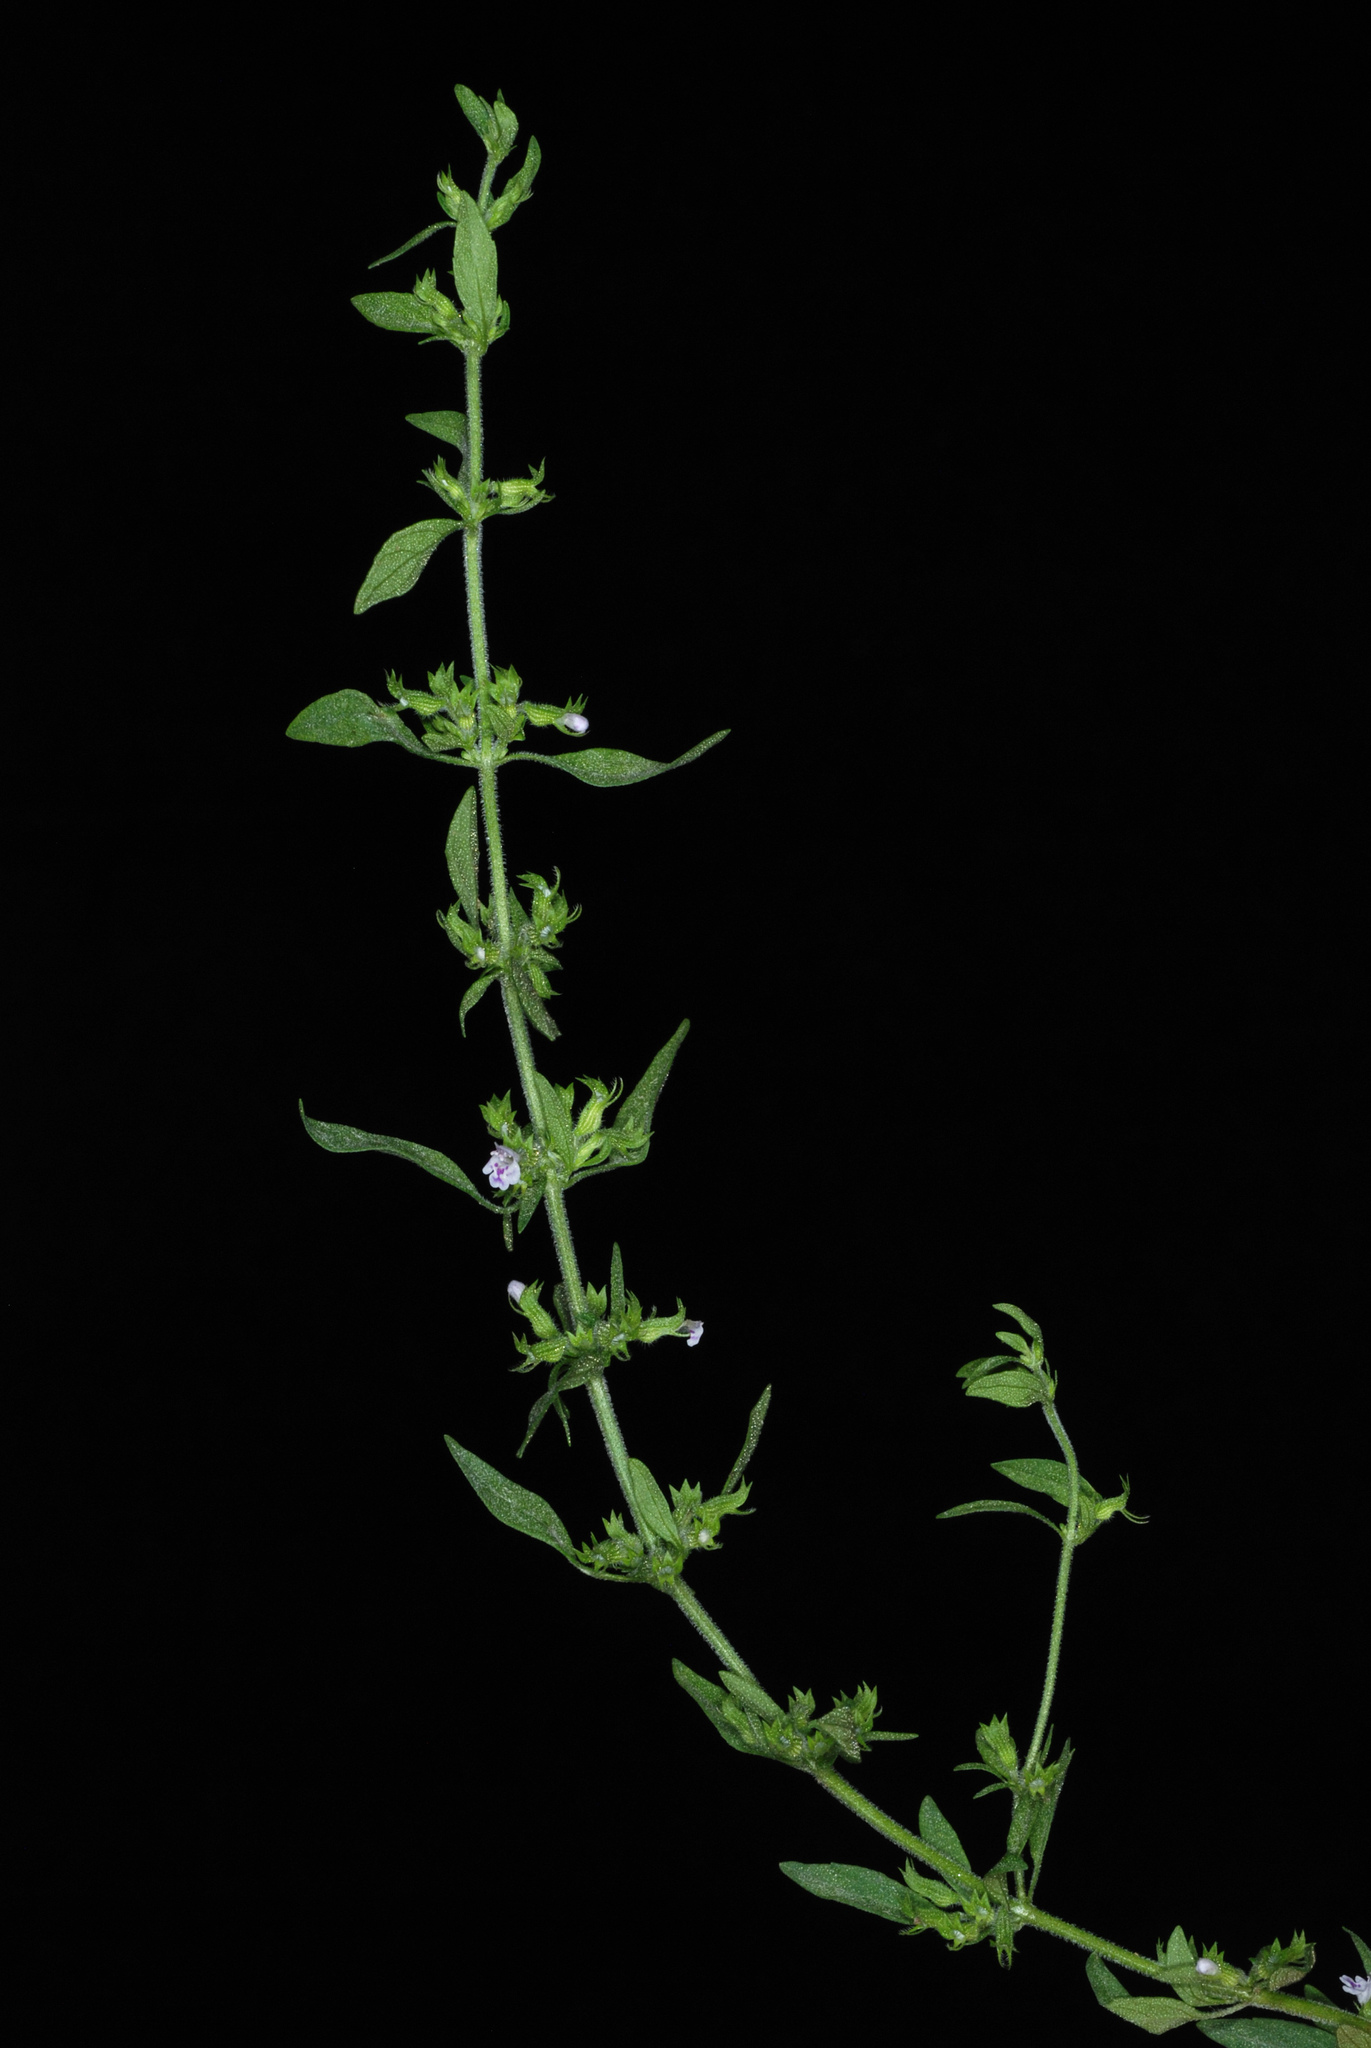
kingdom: Plantae
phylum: Tracheophyta
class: Magnoliopsida
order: Lamiales
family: Lamiaceae
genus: Hedeoma
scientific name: Hedeoma pulegioides
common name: American false pennyroyal
